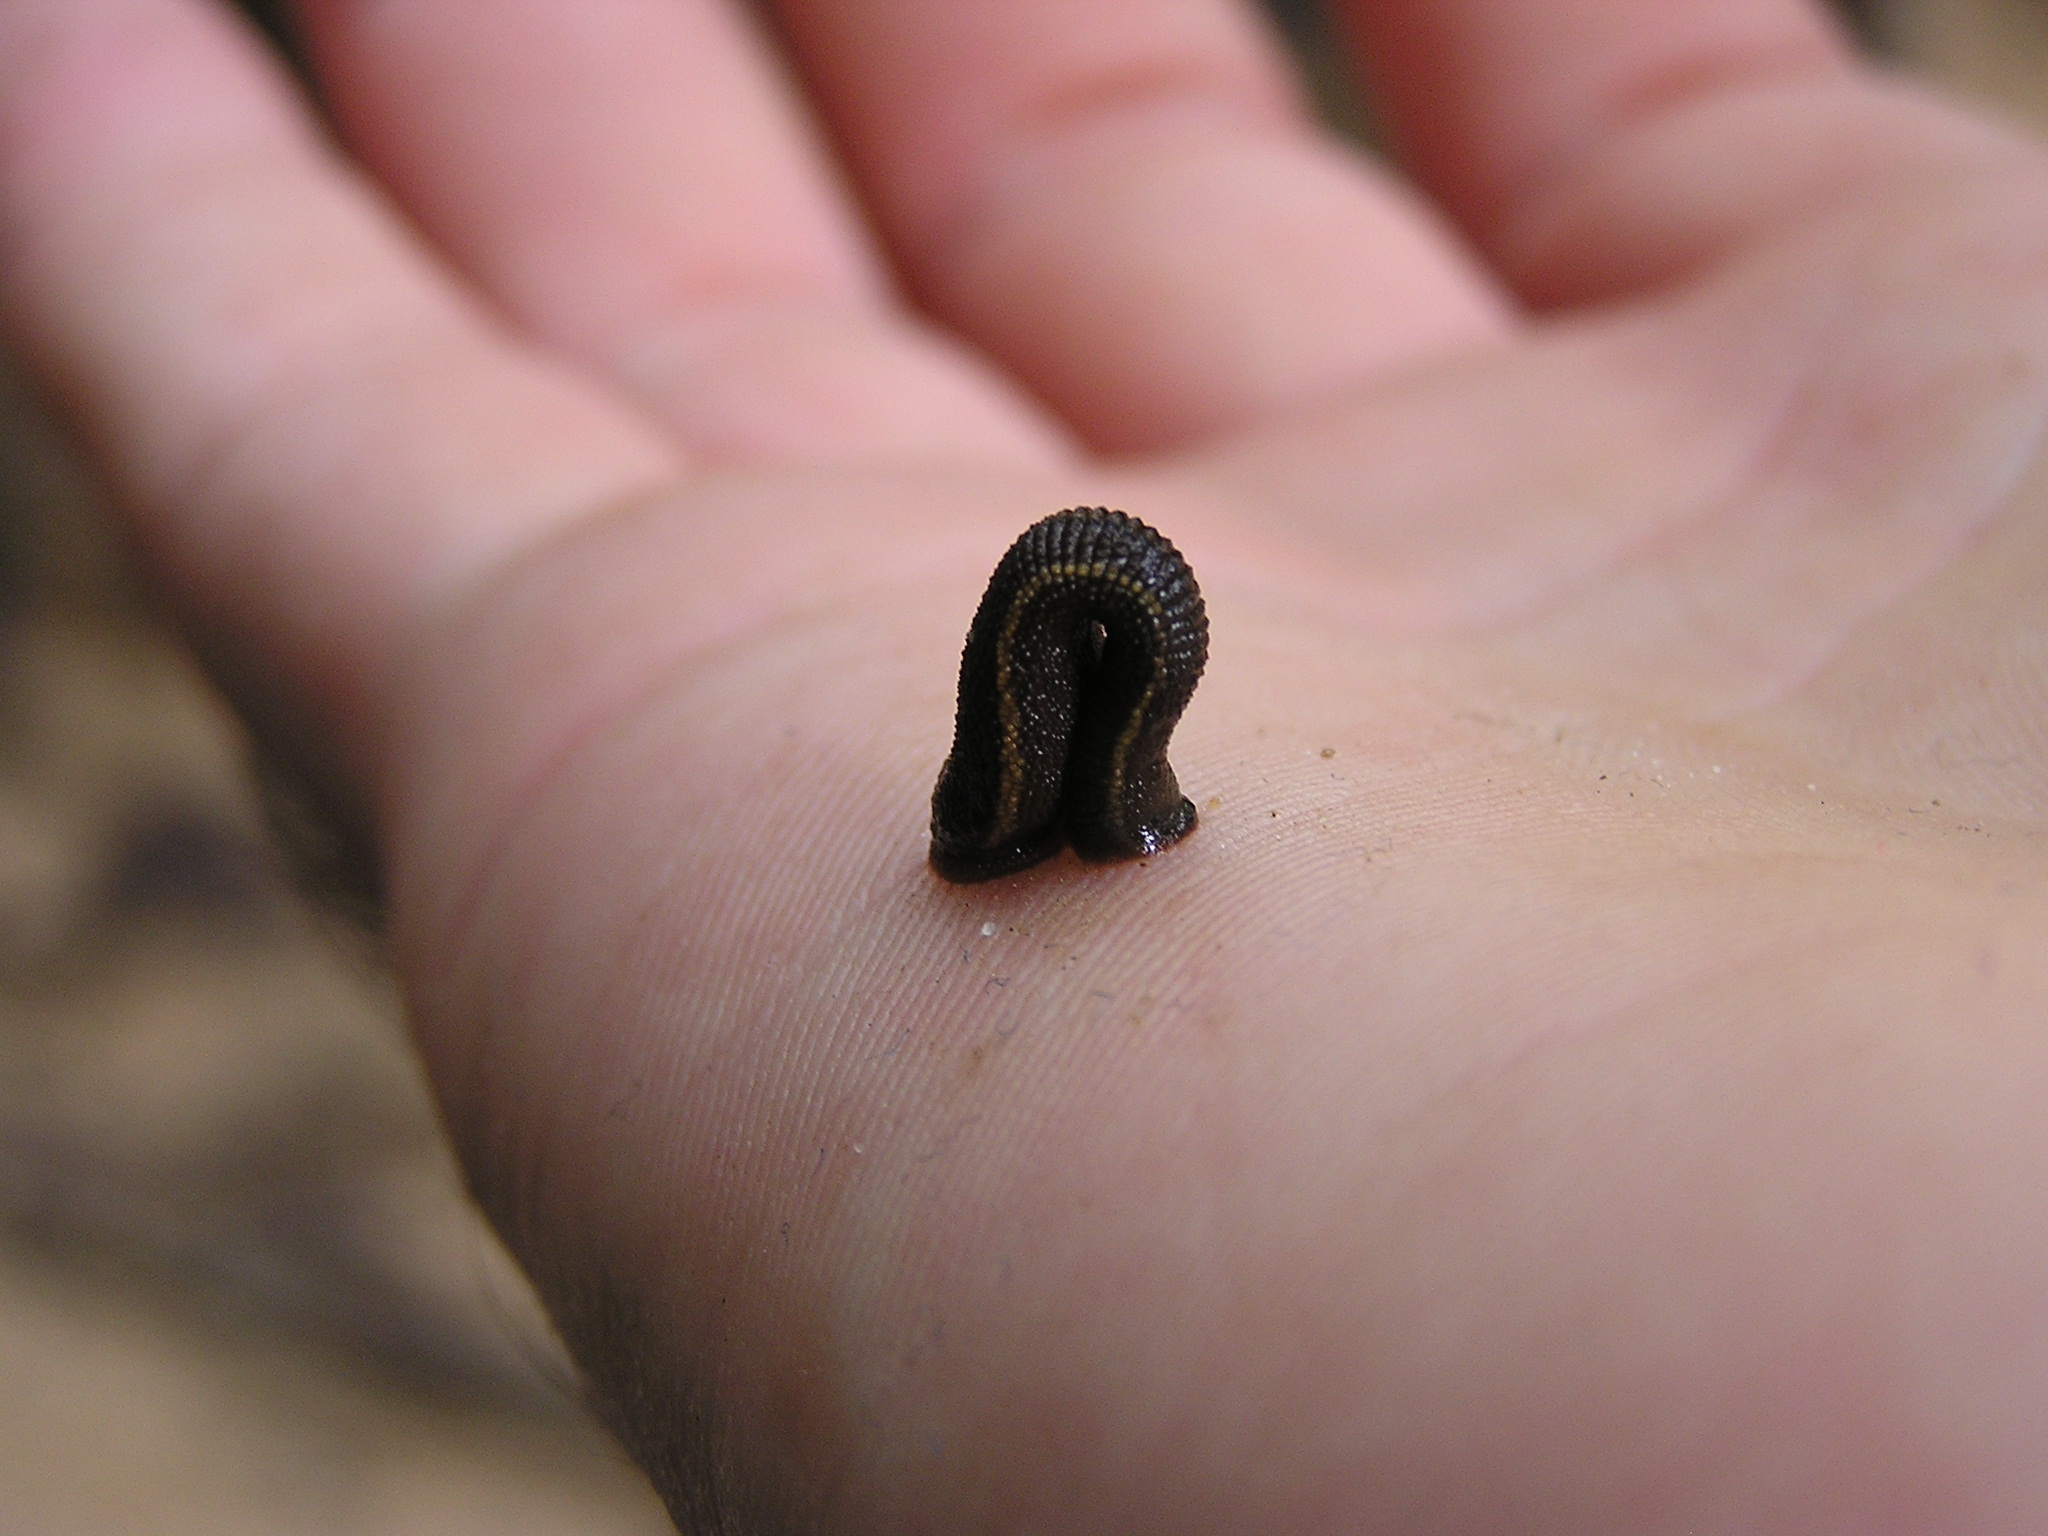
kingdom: Animalia
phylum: Annelida
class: Clitellata
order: Arhynchobdellida
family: Haemadipsidae
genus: Haemadipsa
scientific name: Haemadipsa zeylanica
